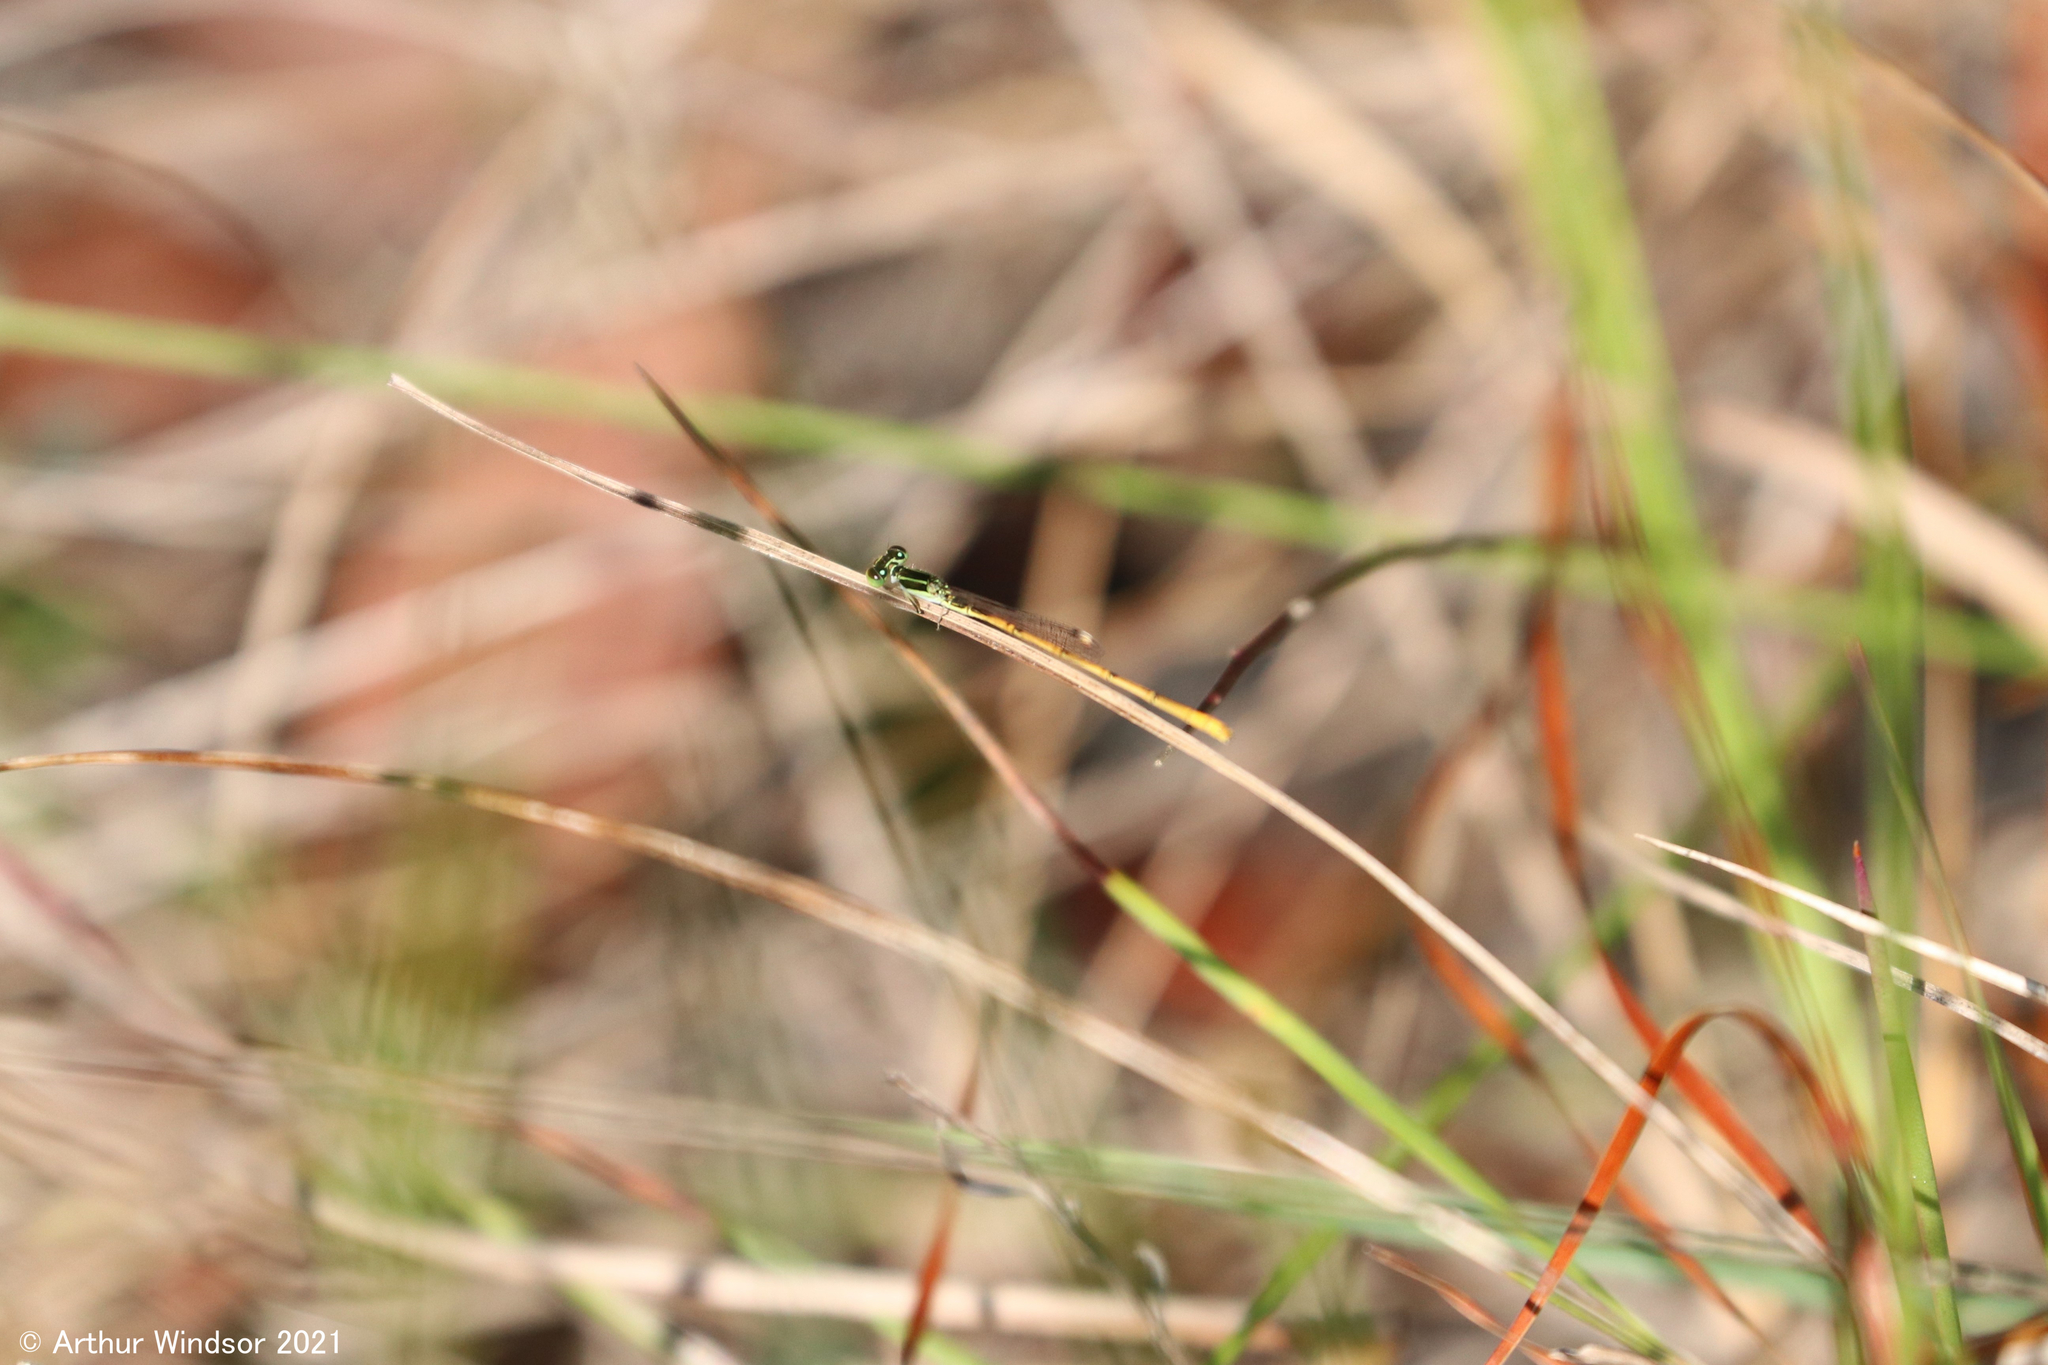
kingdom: Animalia
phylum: Arthropoda
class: Insecta
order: Odonata
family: Coenagrionidae
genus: Ischnura
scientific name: Ischnura hastata
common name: Citrine forktail
